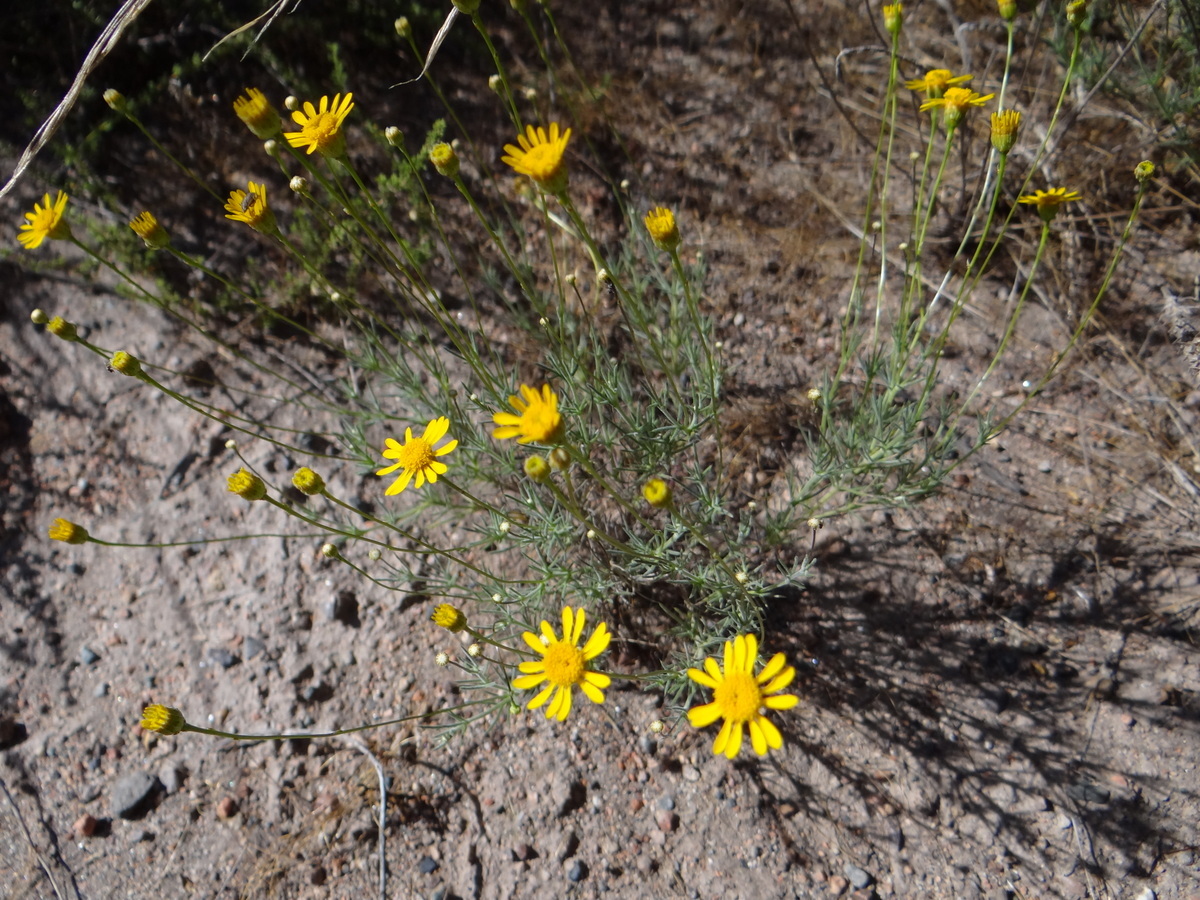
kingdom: Plantae
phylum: Tracheophyta
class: Magnoliopsida
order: Asterales
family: Asteraceae
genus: Thymophylla
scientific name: Thymophylla pentachaeta
